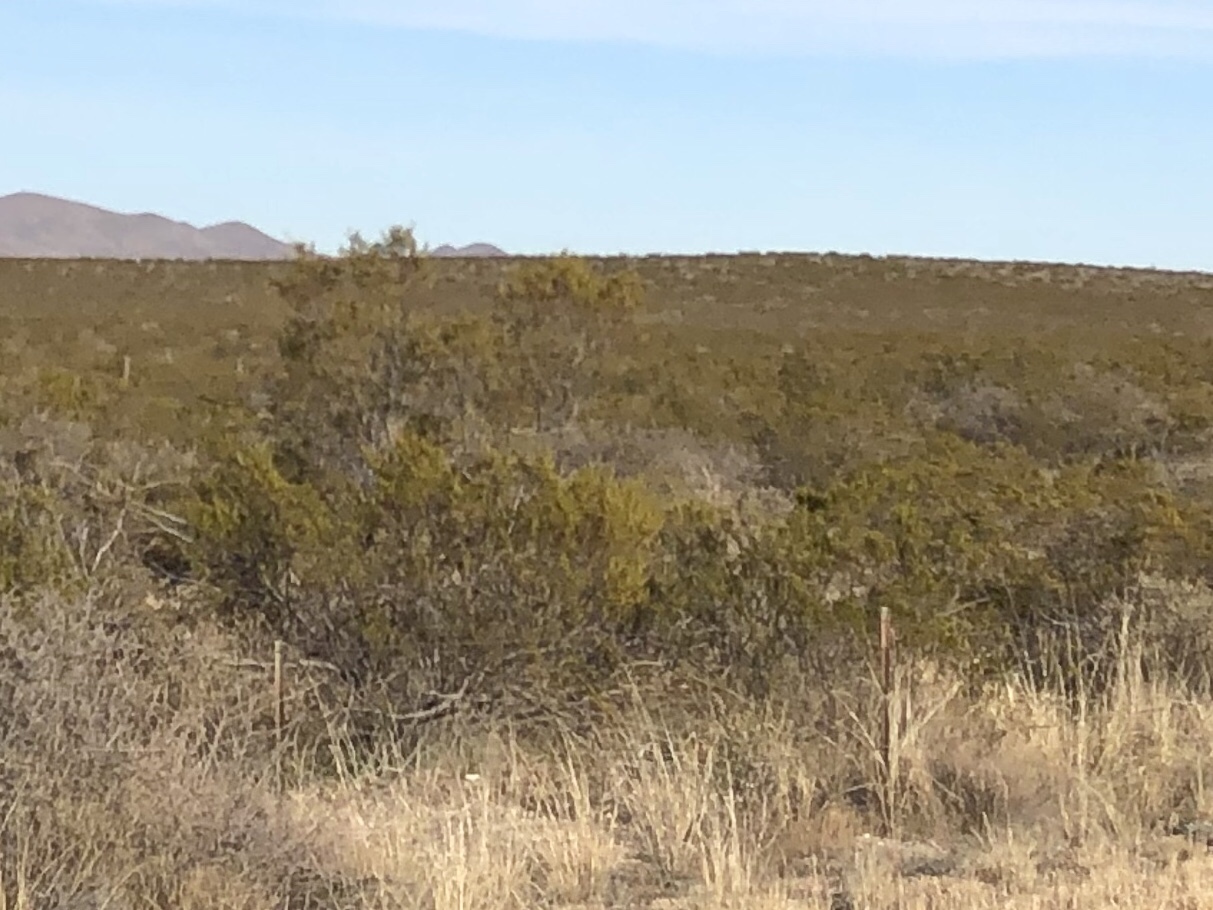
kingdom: Plantae
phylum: Tracheophyta
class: Magnoliopsida
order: Zygophyllales
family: Zygophyllaceae
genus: Larrea
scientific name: Larrea tridentata
